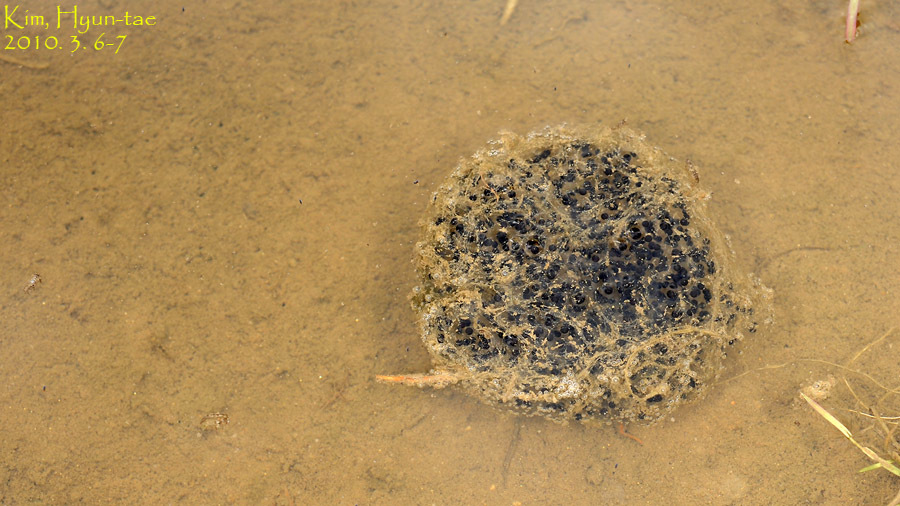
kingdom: Animalia
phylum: Chordata
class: Amphibia
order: Anura
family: Ranidae
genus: Rana
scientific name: Rana uenoi
